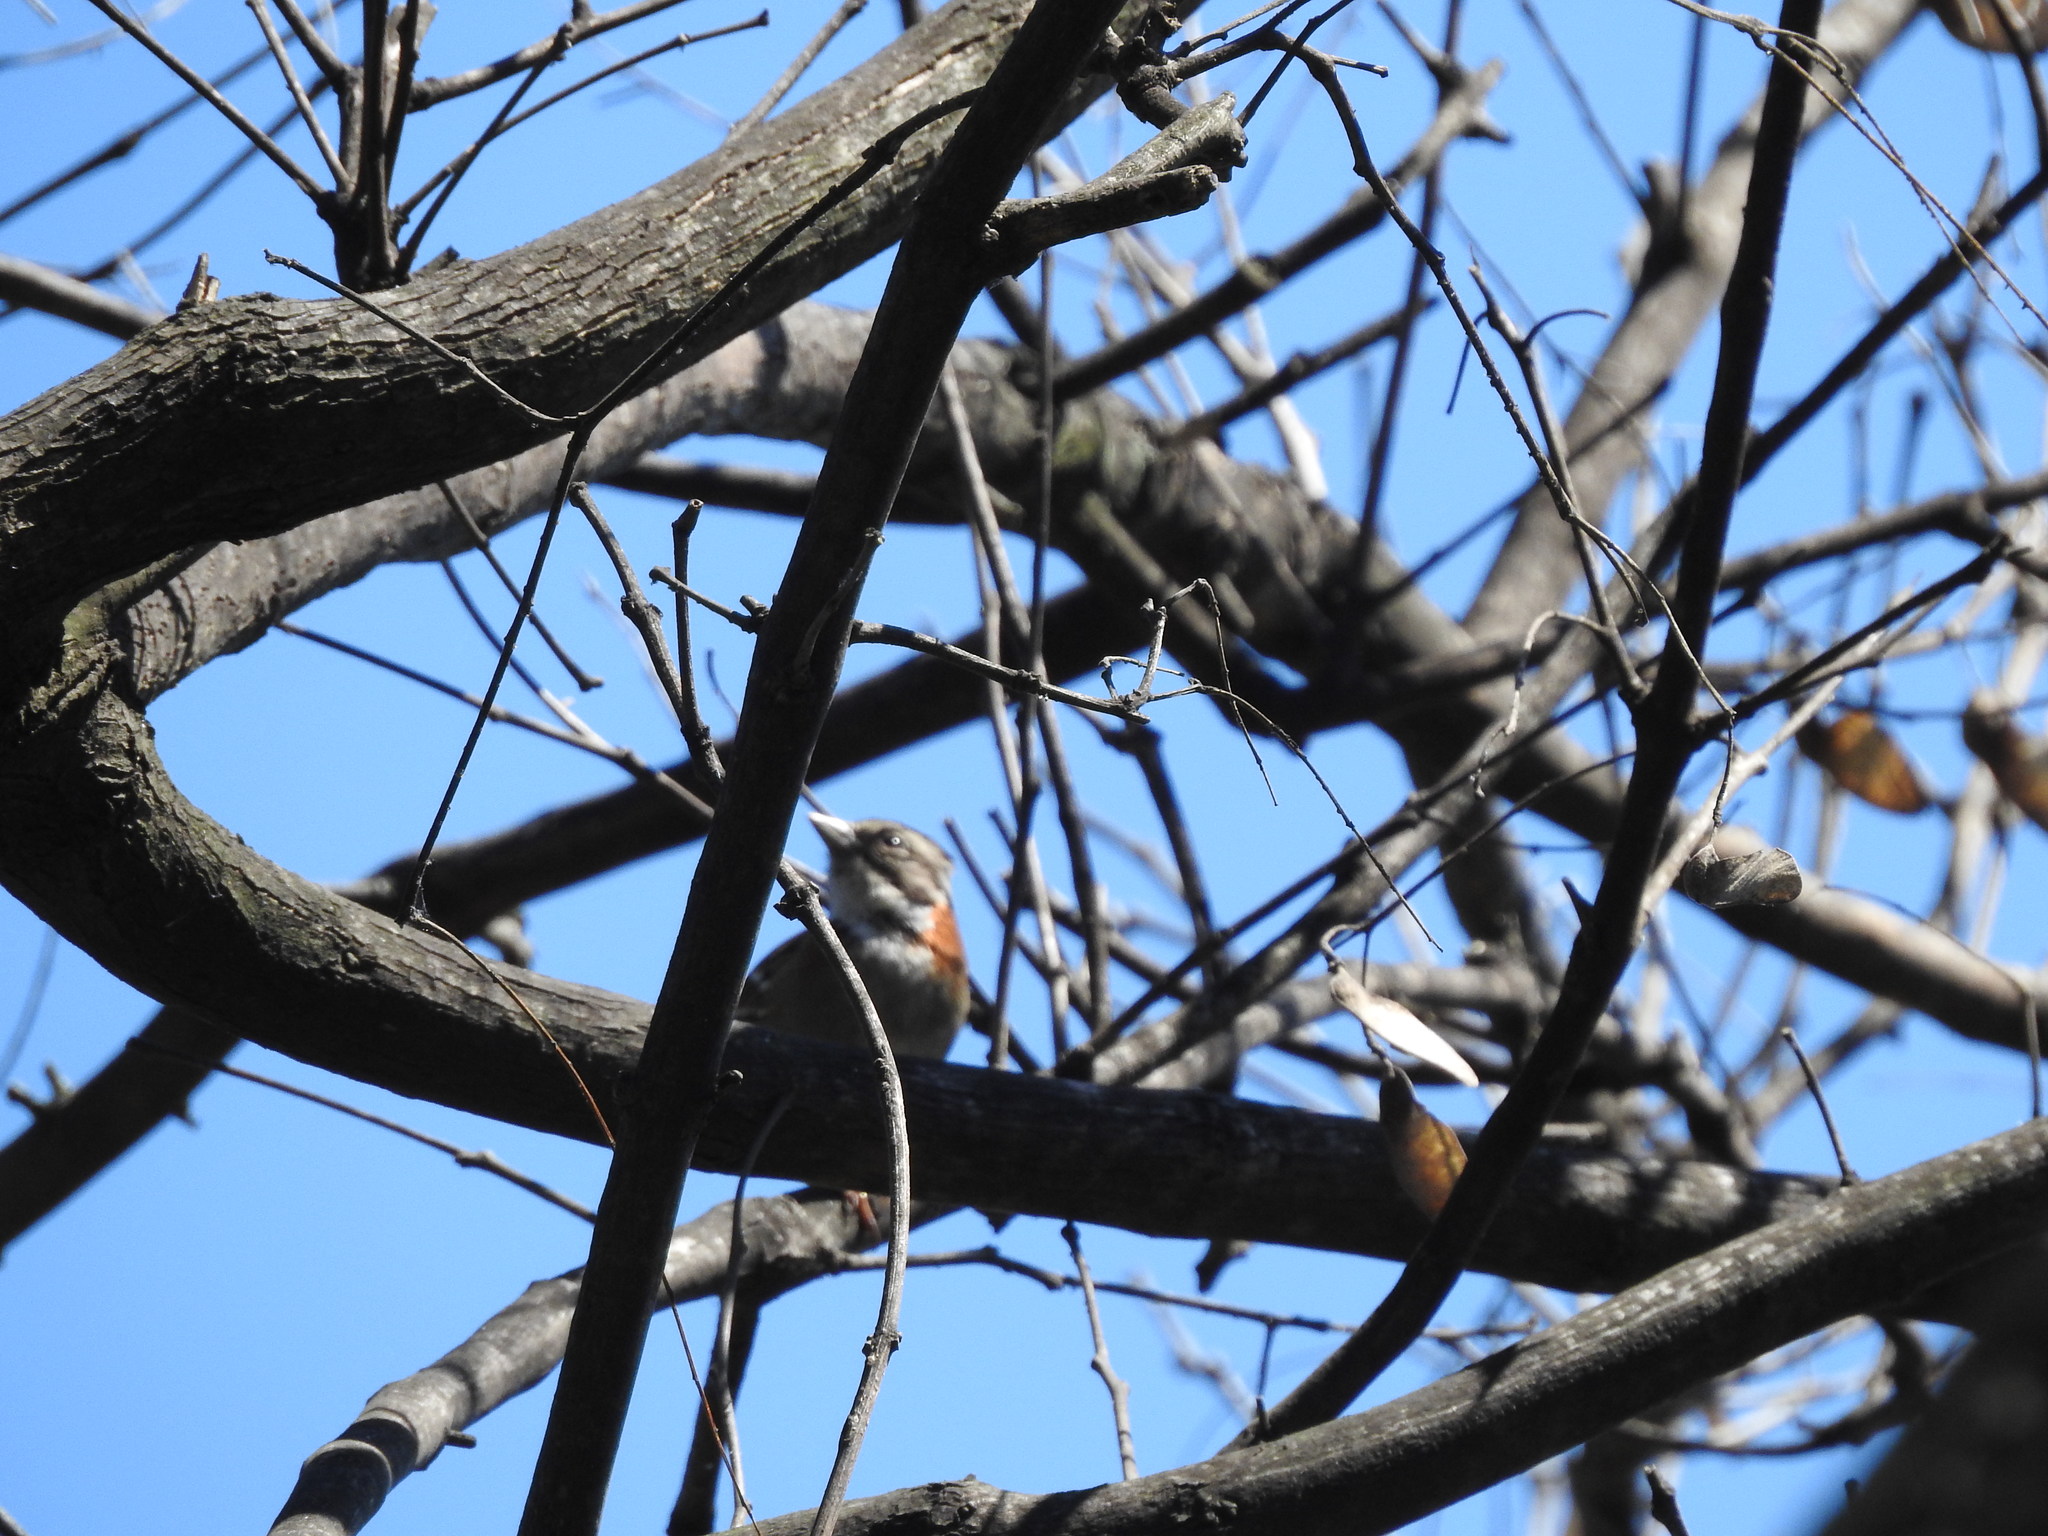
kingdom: Animalia
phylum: Chordata
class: Aves
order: Passeriformes
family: Passerellidae
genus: Zonotrichia
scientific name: Zonotrichia capensis
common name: Rufous-collared sparrow
